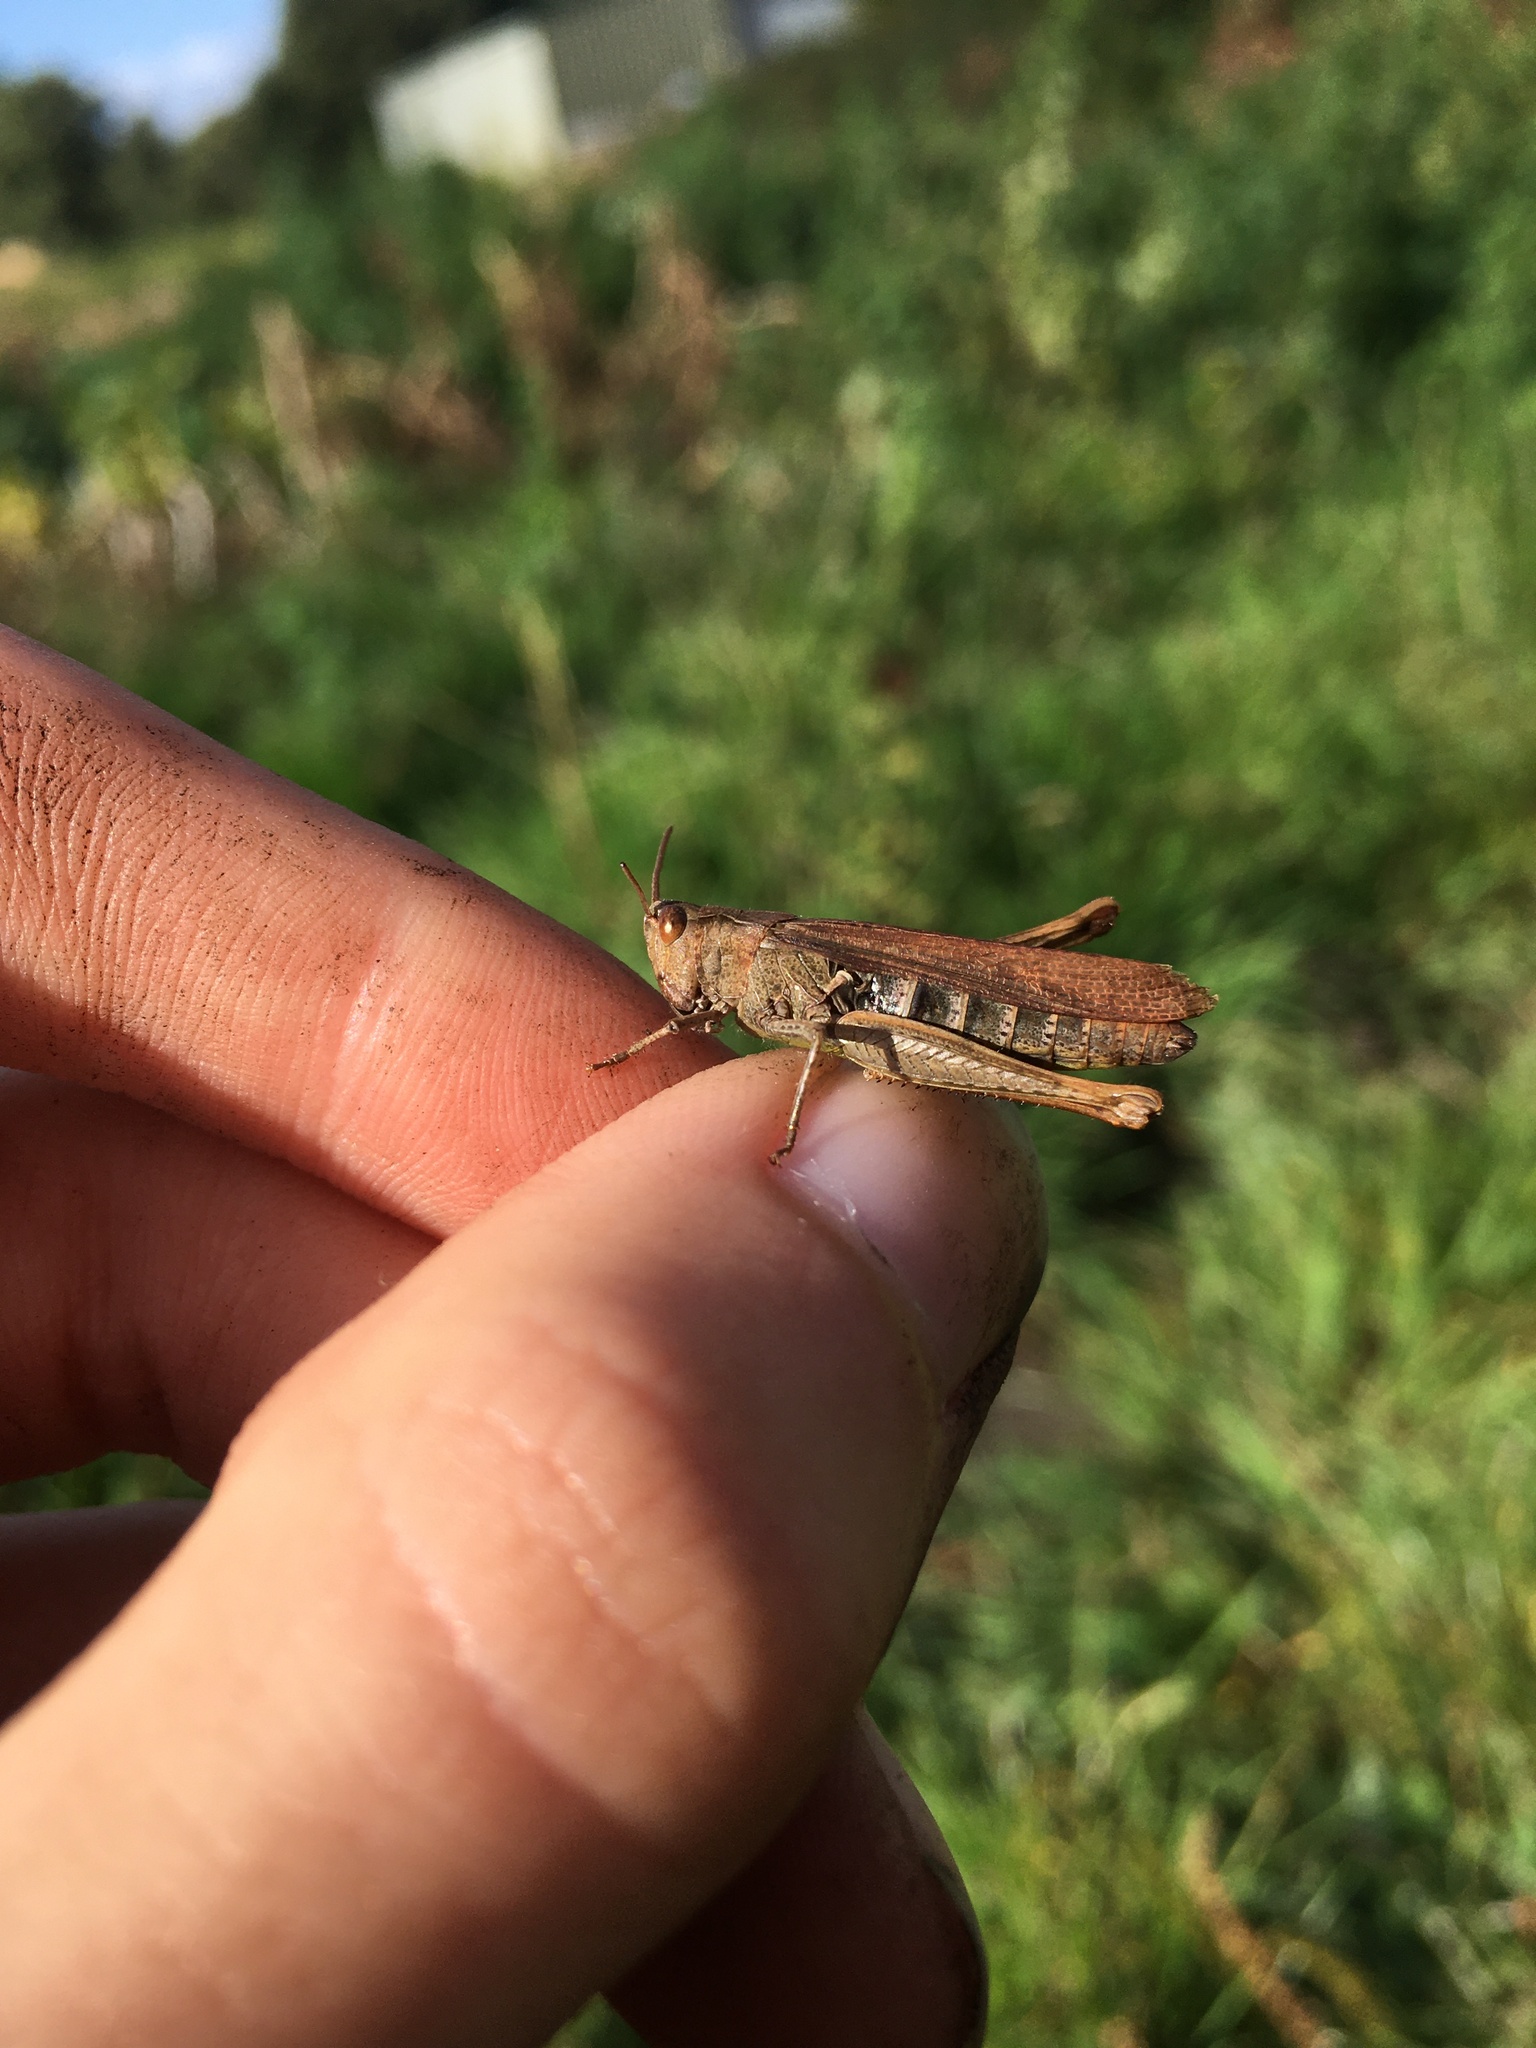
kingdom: Animalia
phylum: Arthropoda
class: Insecta
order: Orthoptera
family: Acrididae
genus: Chorthippus
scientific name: Chorthippus brunneus
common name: Field grasshopper
